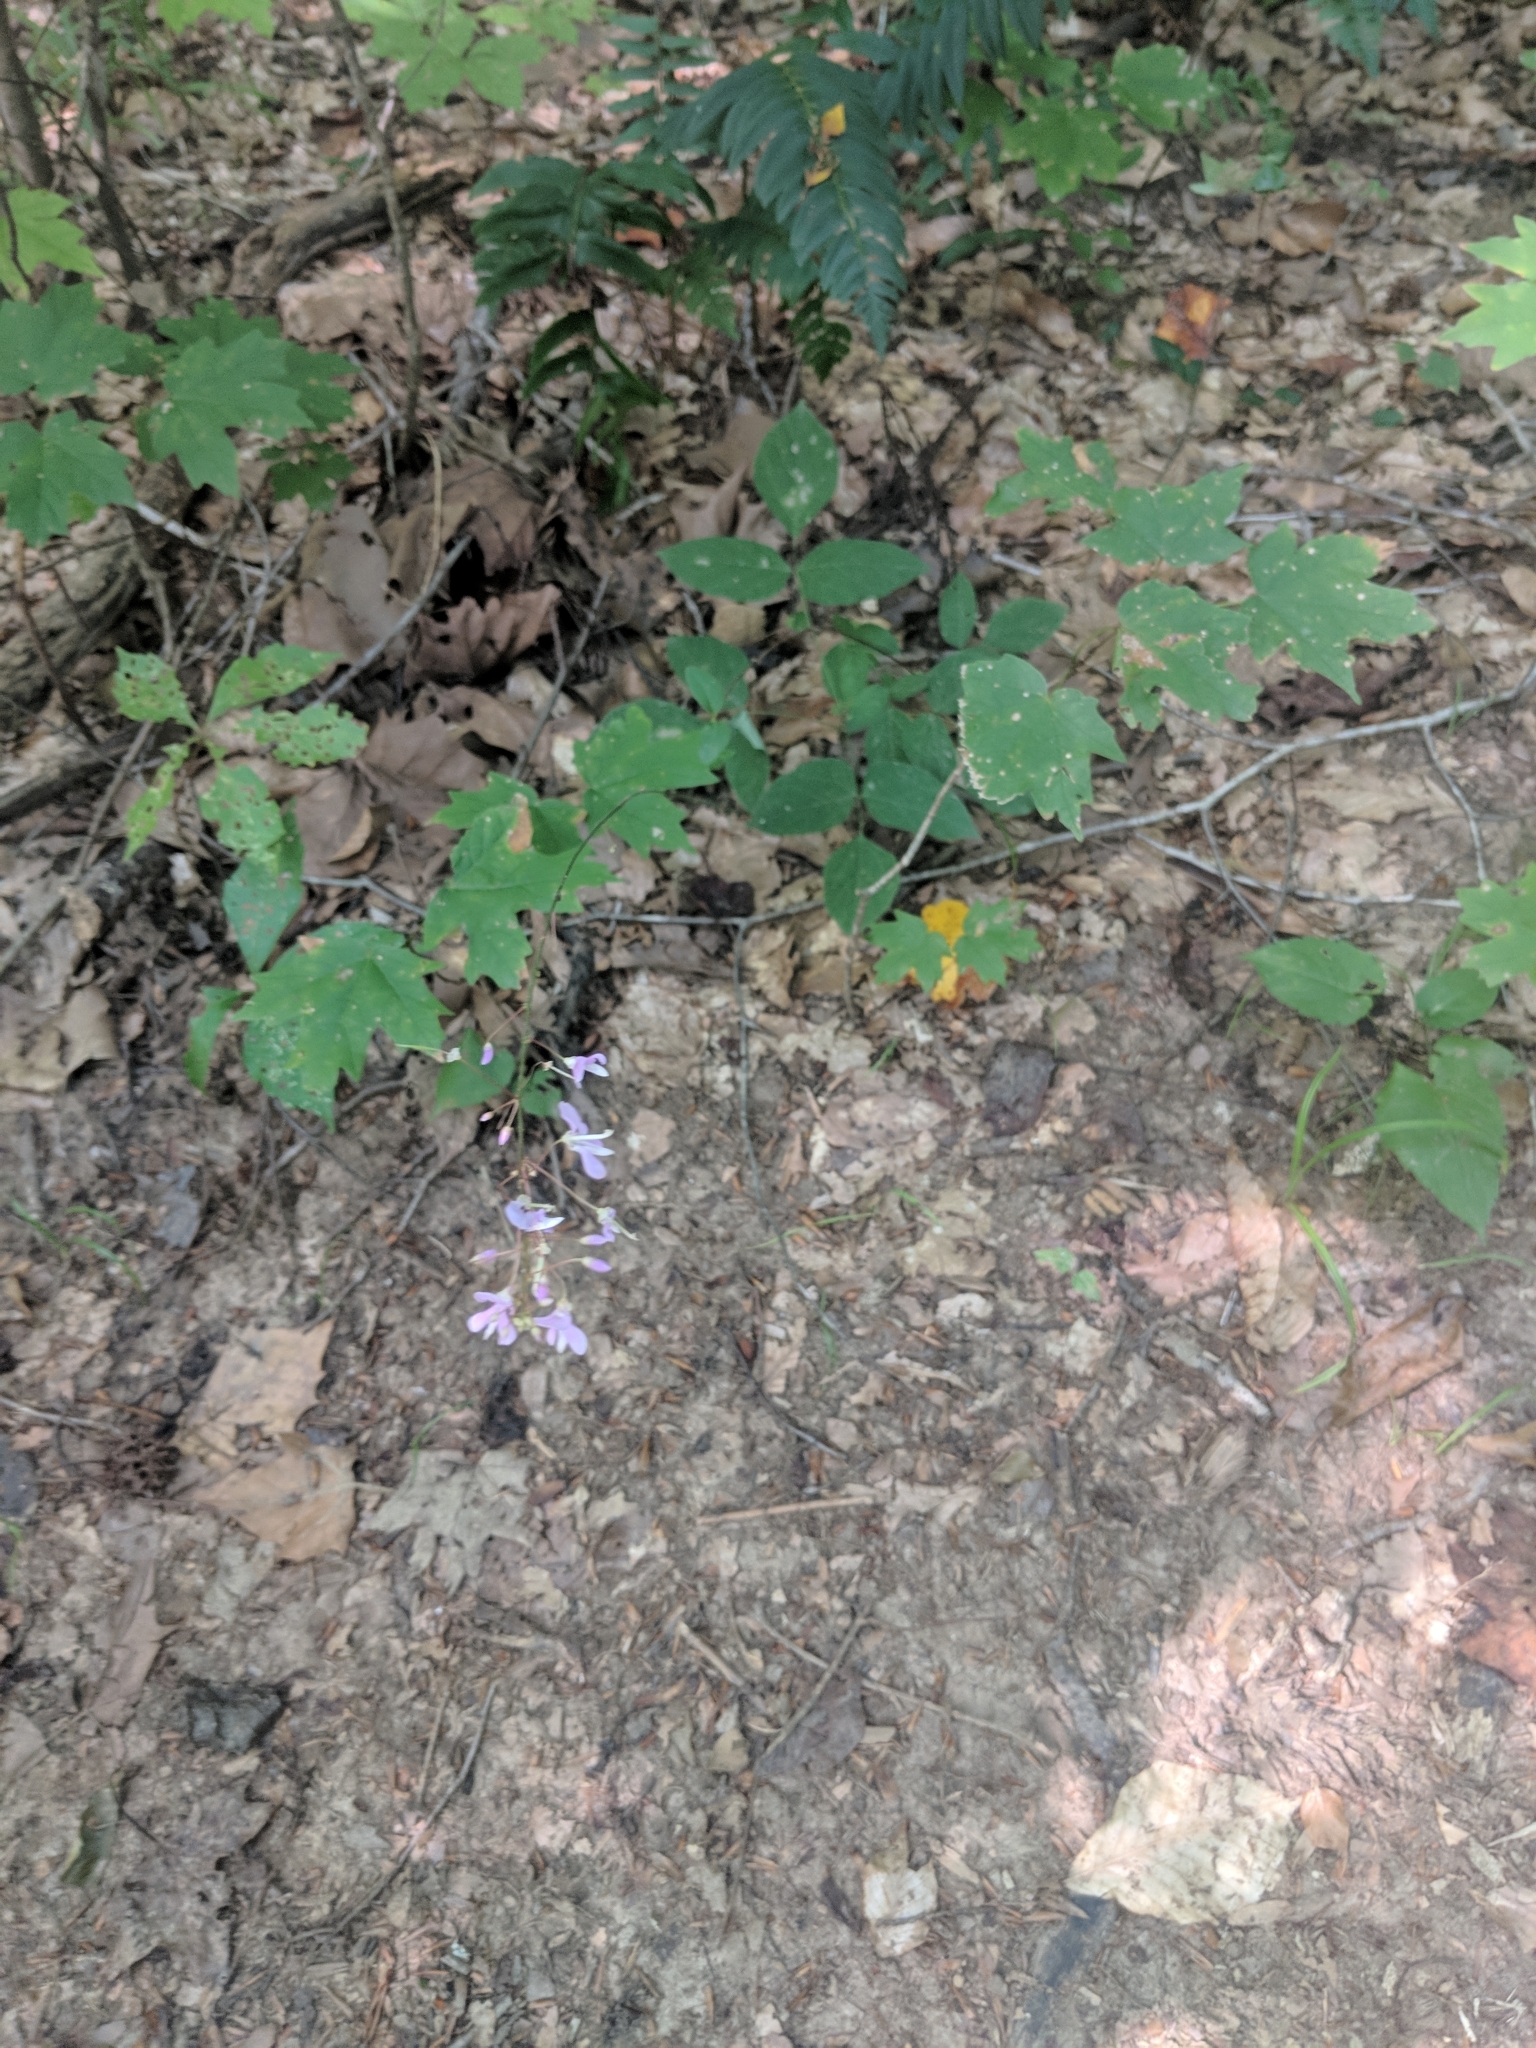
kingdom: Plantae
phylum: Tracheophyta
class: Magnoliopsida
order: Fabales
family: Fabaceae
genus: Hylodesmum
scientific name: Hylodesmum nudiflorum
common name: Bare-stemmed tick-trefoil
